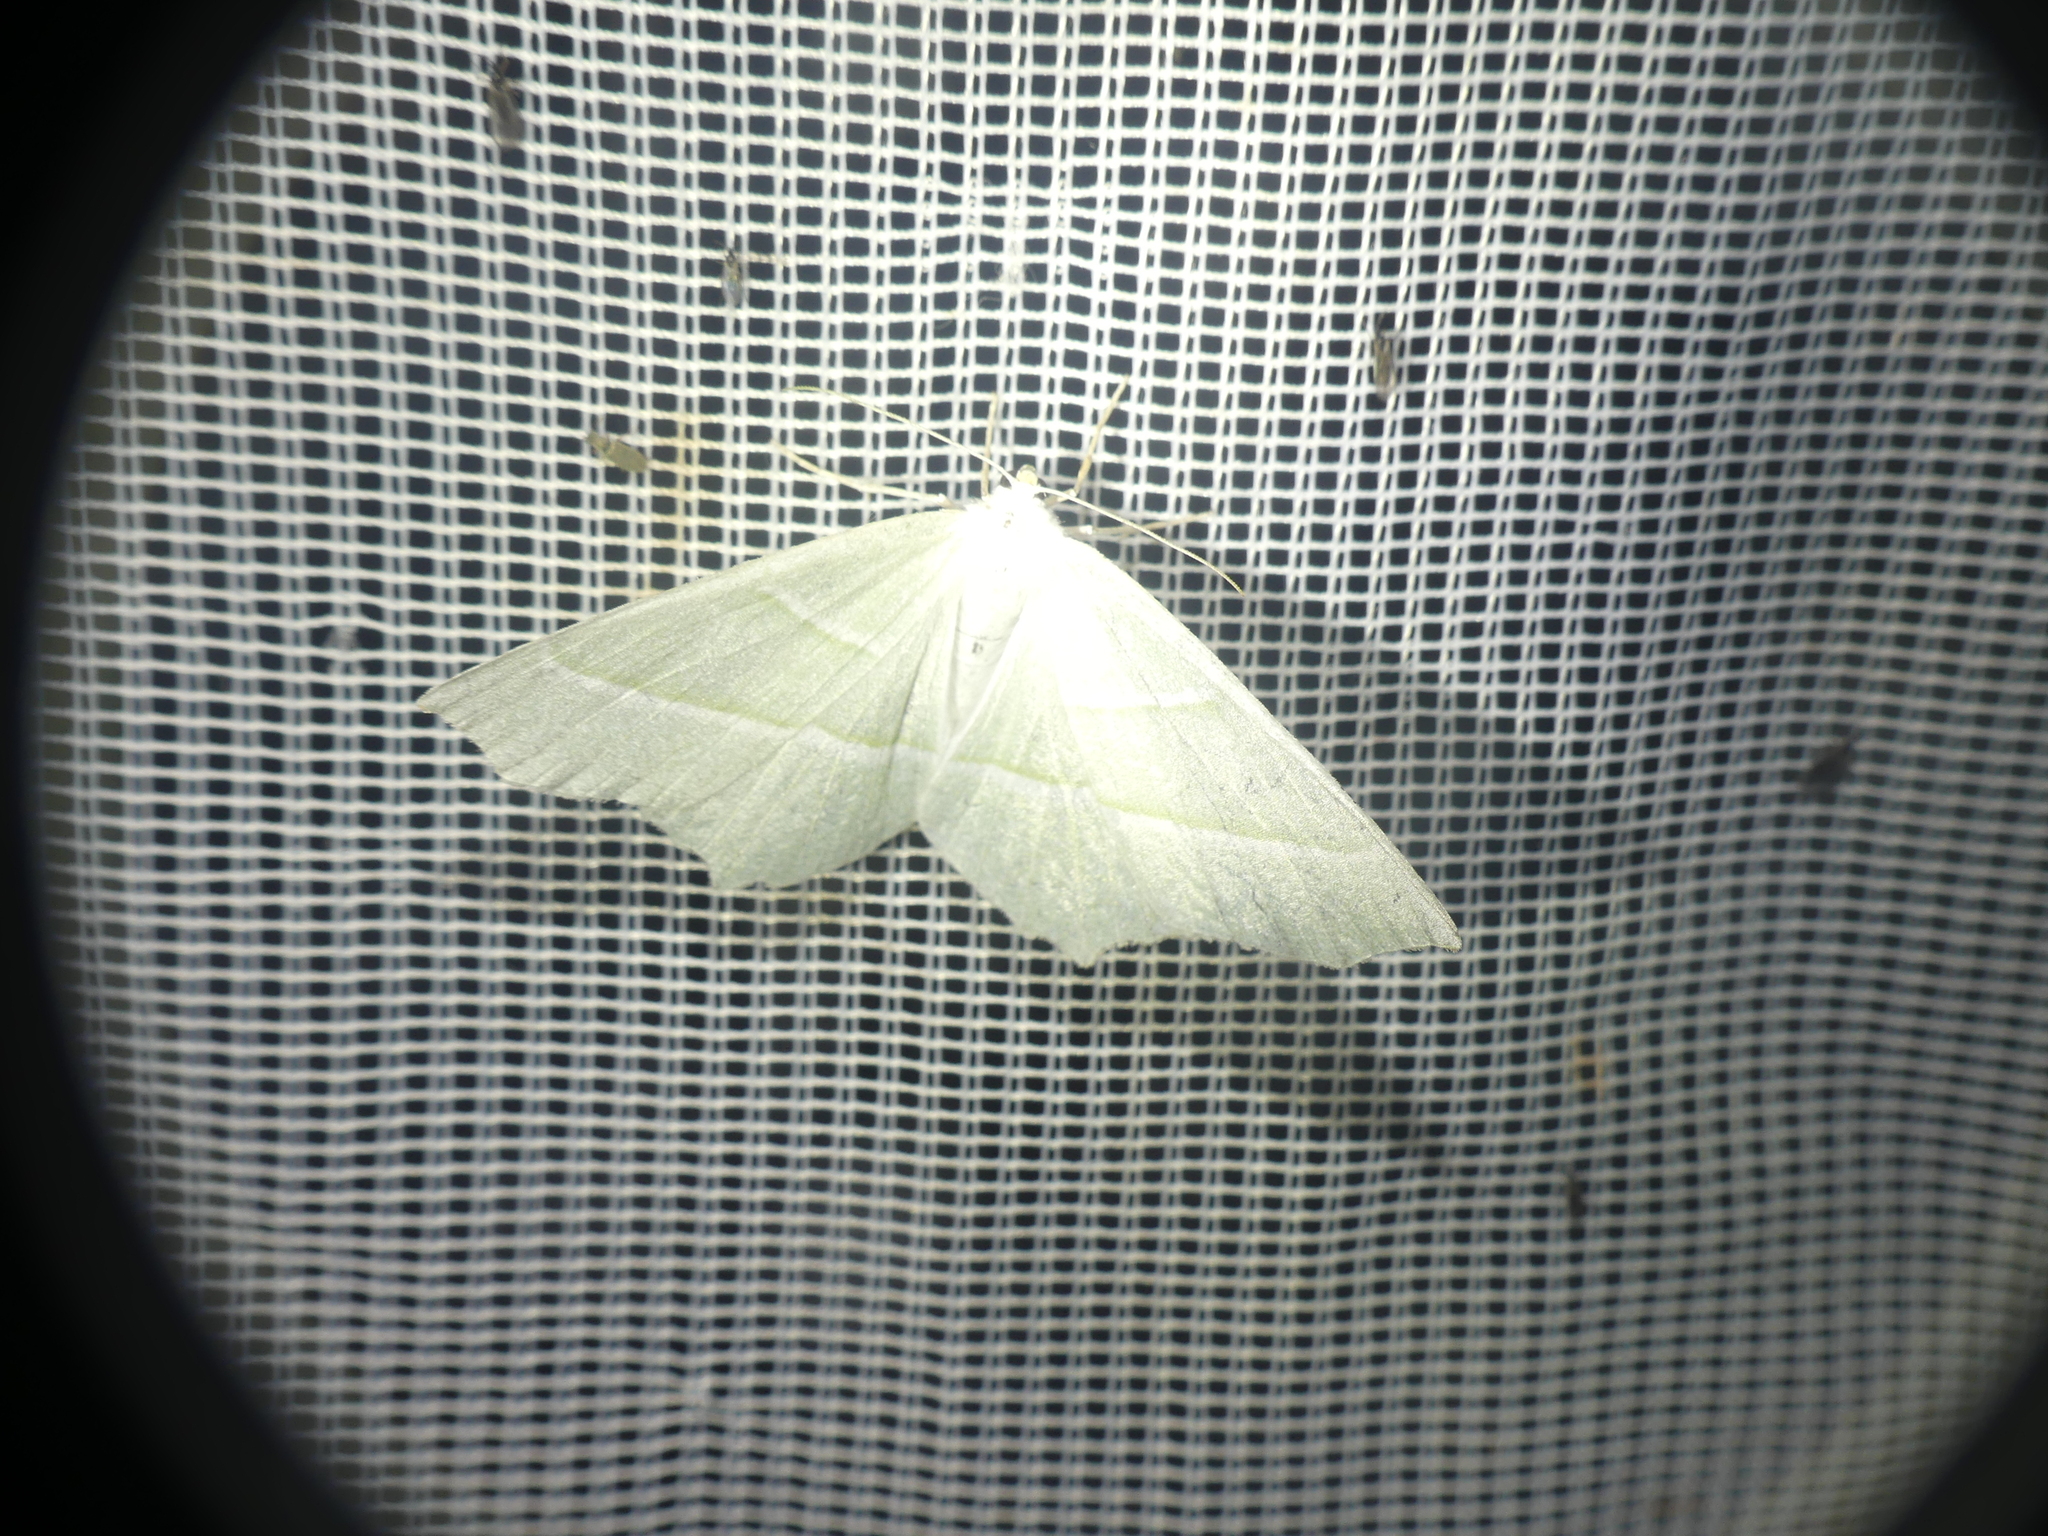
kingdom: Animalia
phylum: Arthropoda
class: Insecta
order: Lepidoptera
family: Geometridae
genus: Campaea
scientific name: Campaea margaritaria
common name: Light emerald
